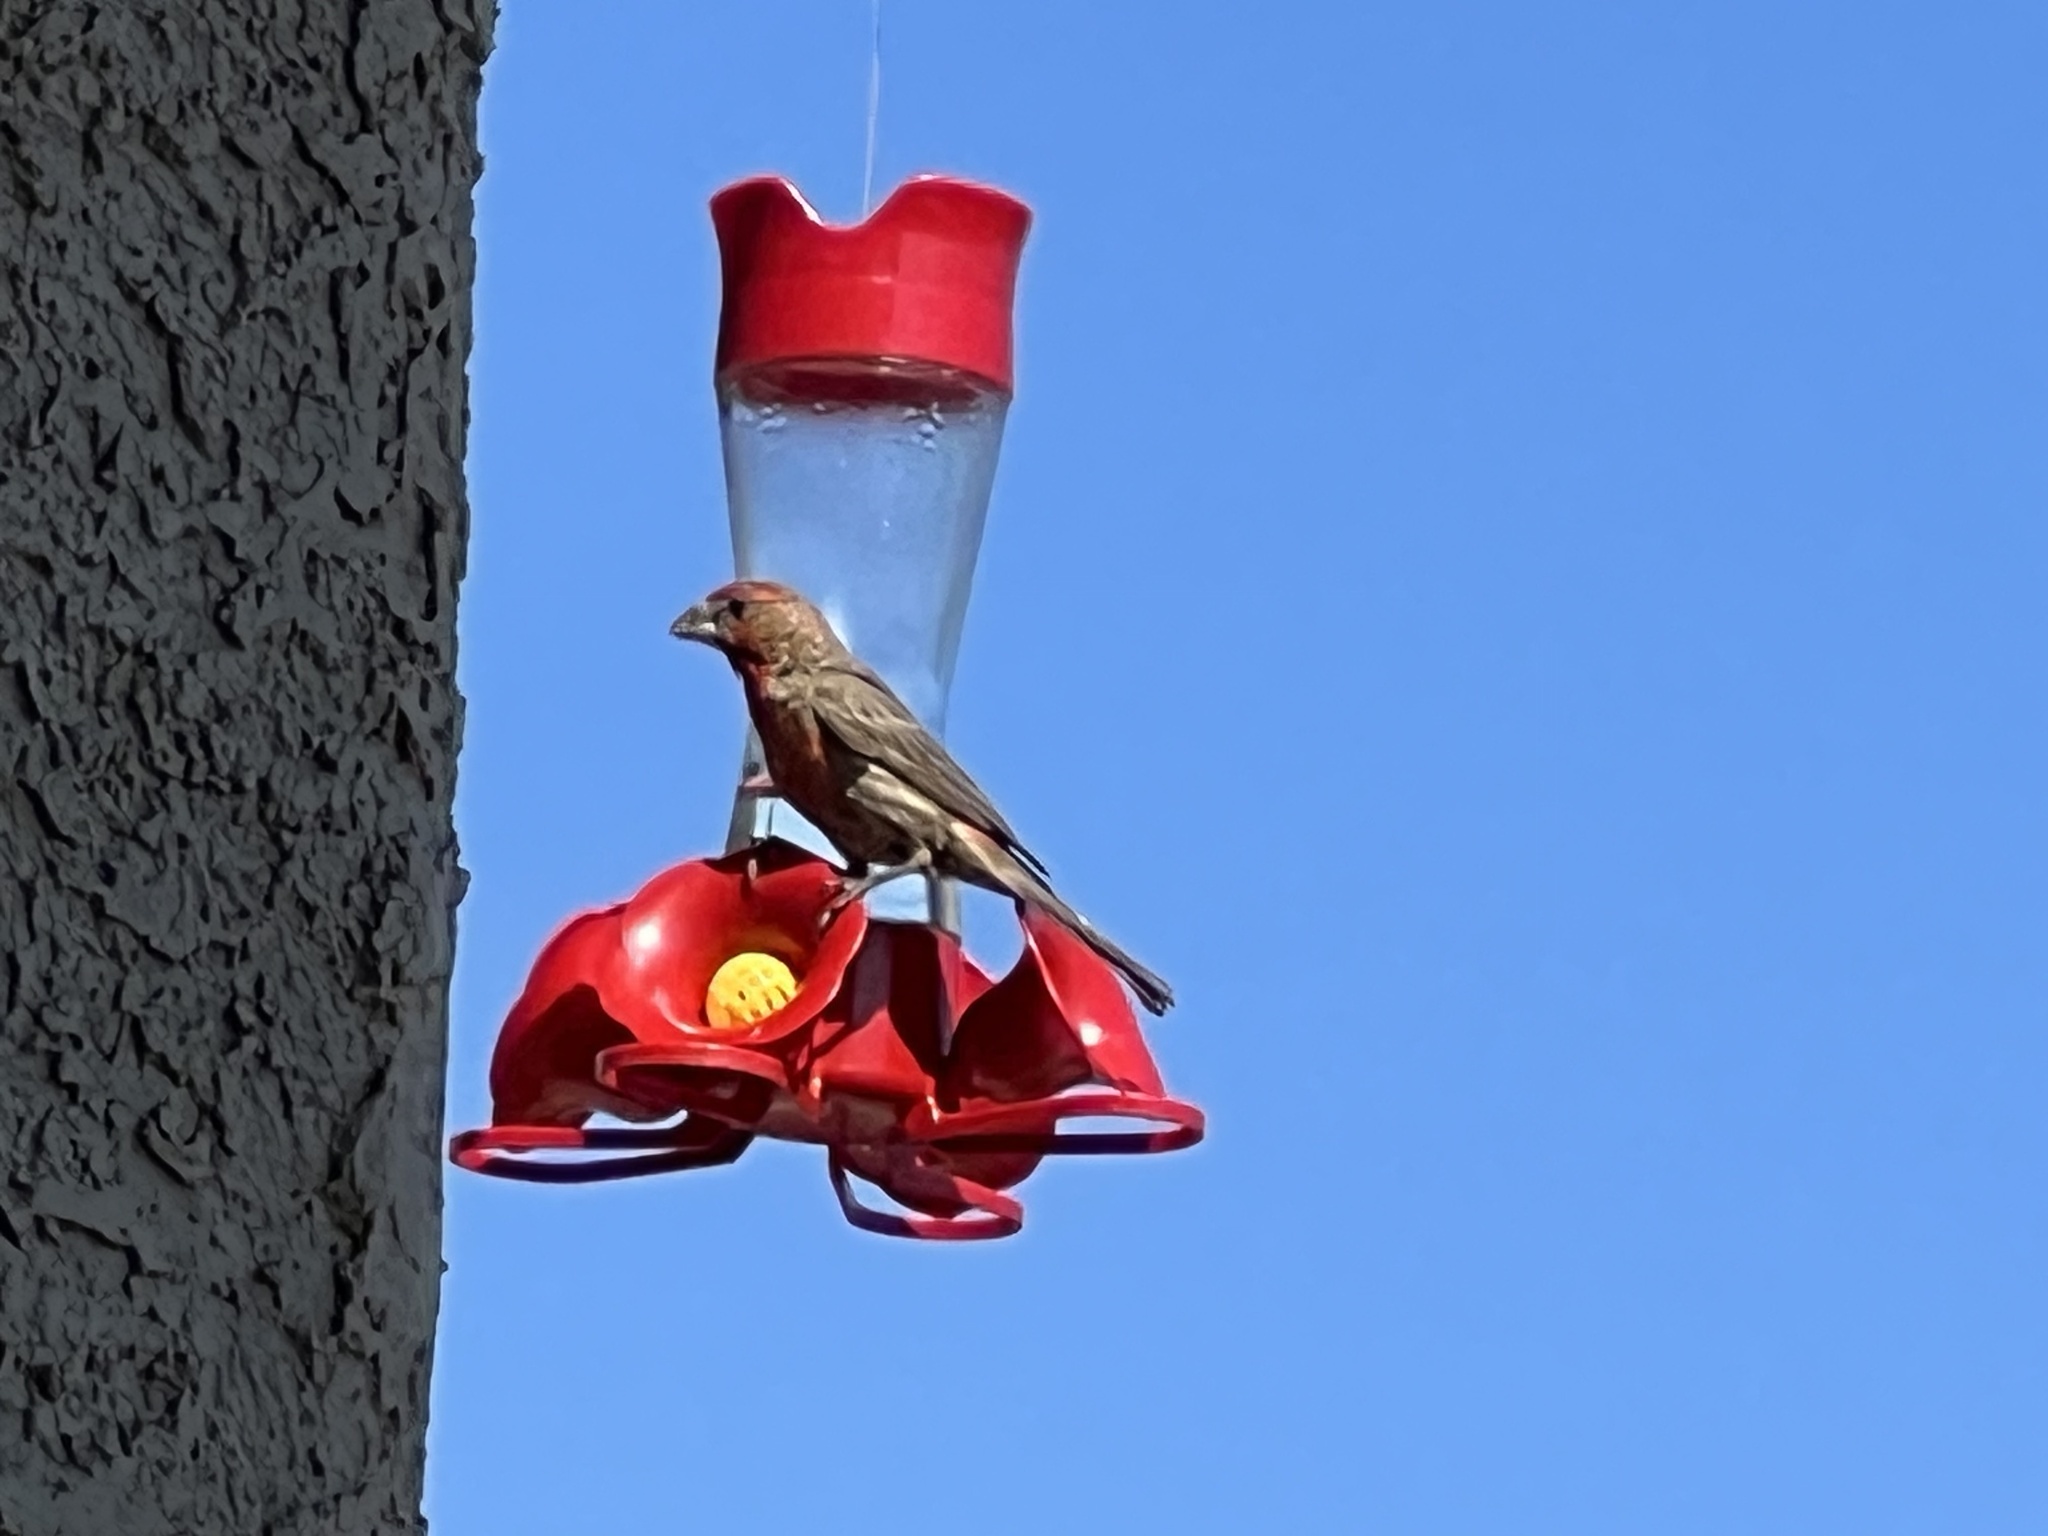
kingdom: Animalia
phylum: Chordata
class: Aves
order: Passeriformes
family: Fringillidae
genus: Haemorhous
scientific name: Haemorhous mexicanus
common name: House finch
